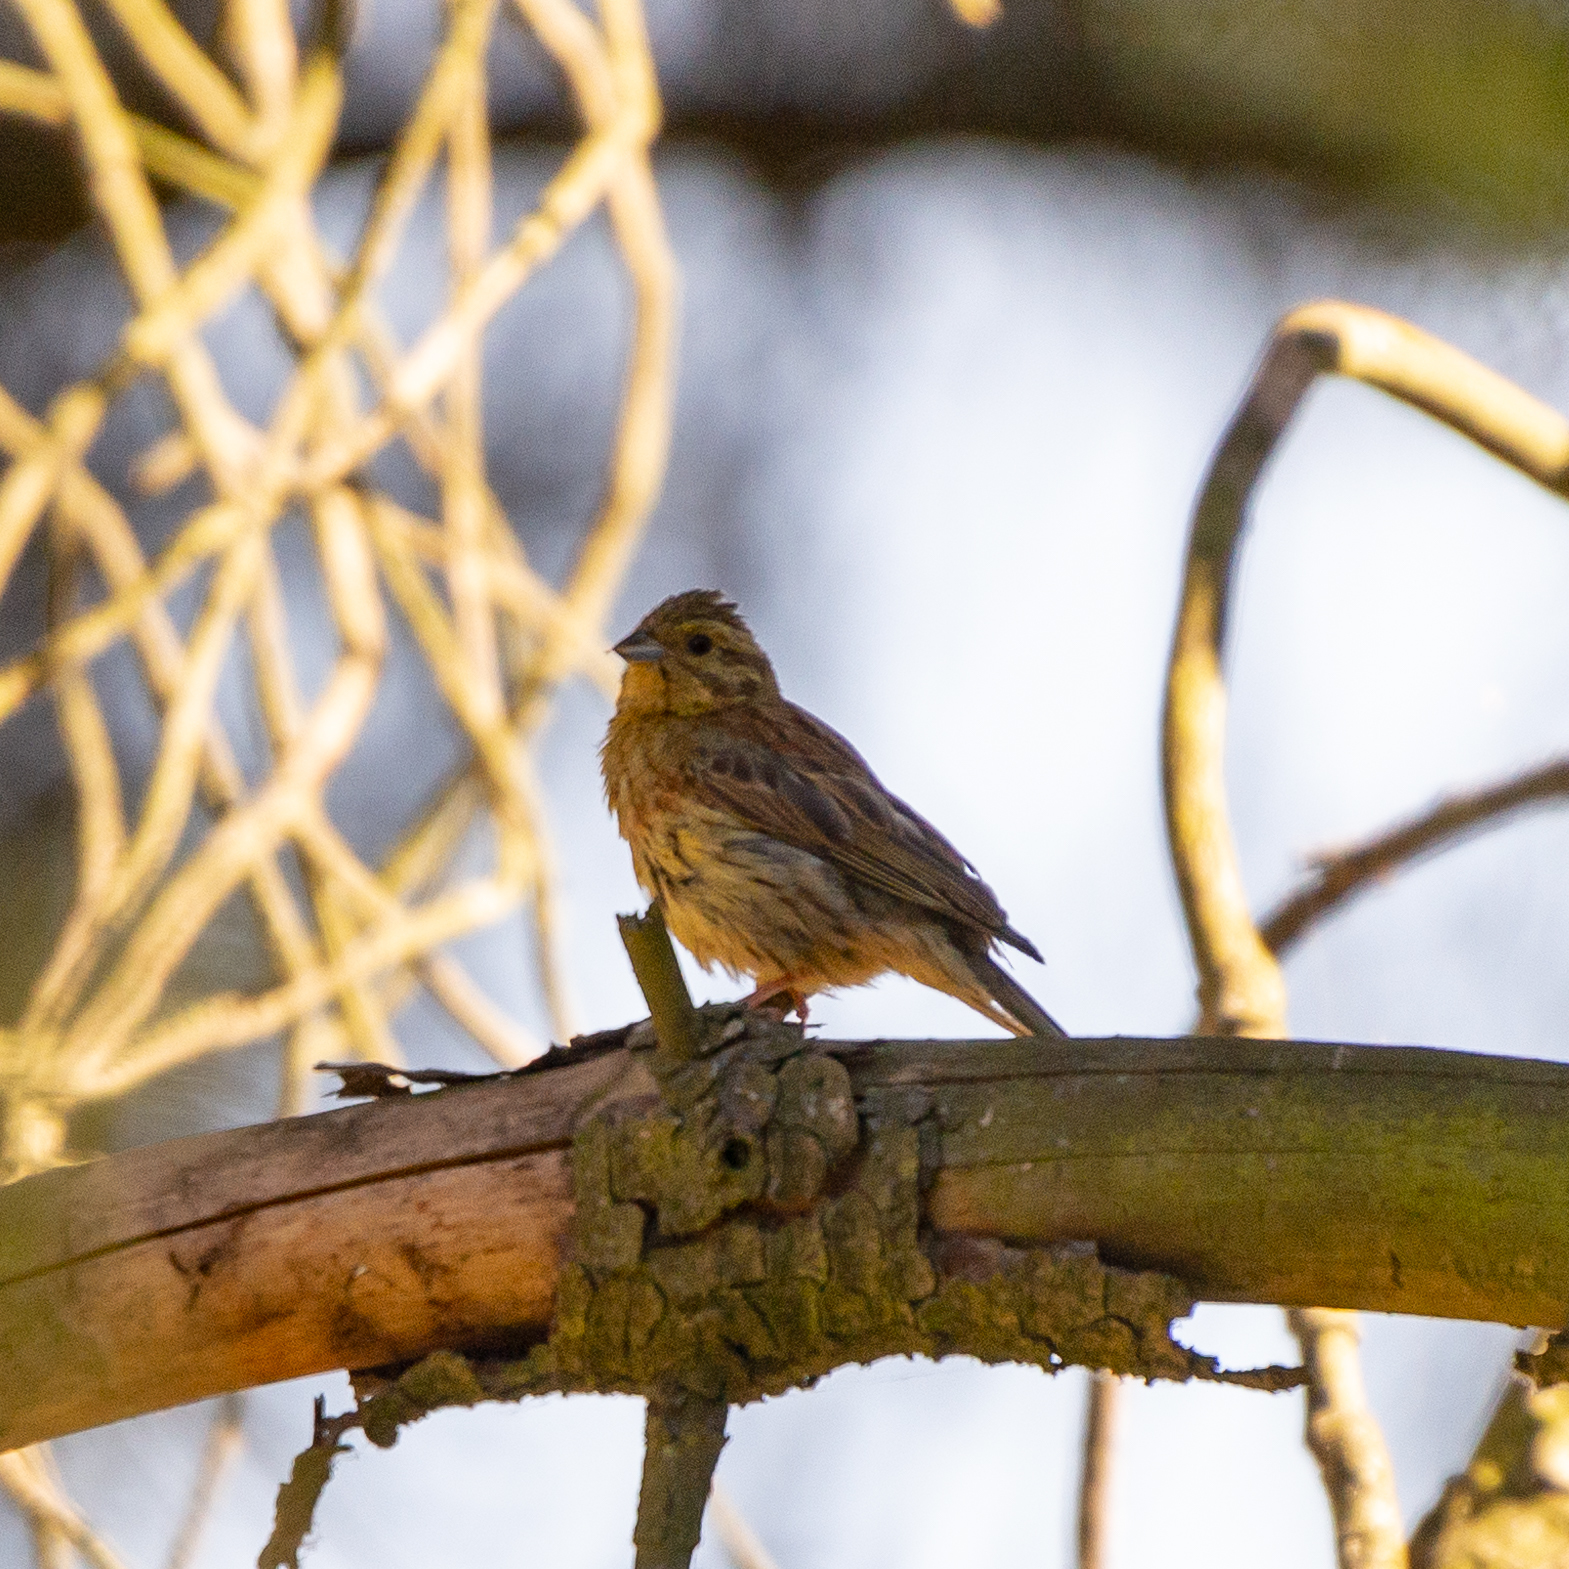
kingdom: Animalia
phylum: Chordata
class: Aves
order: Passeriformes
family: Emberizidae
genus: Emberiza
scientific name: Emberiza citrinella
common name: Yellowhammer
